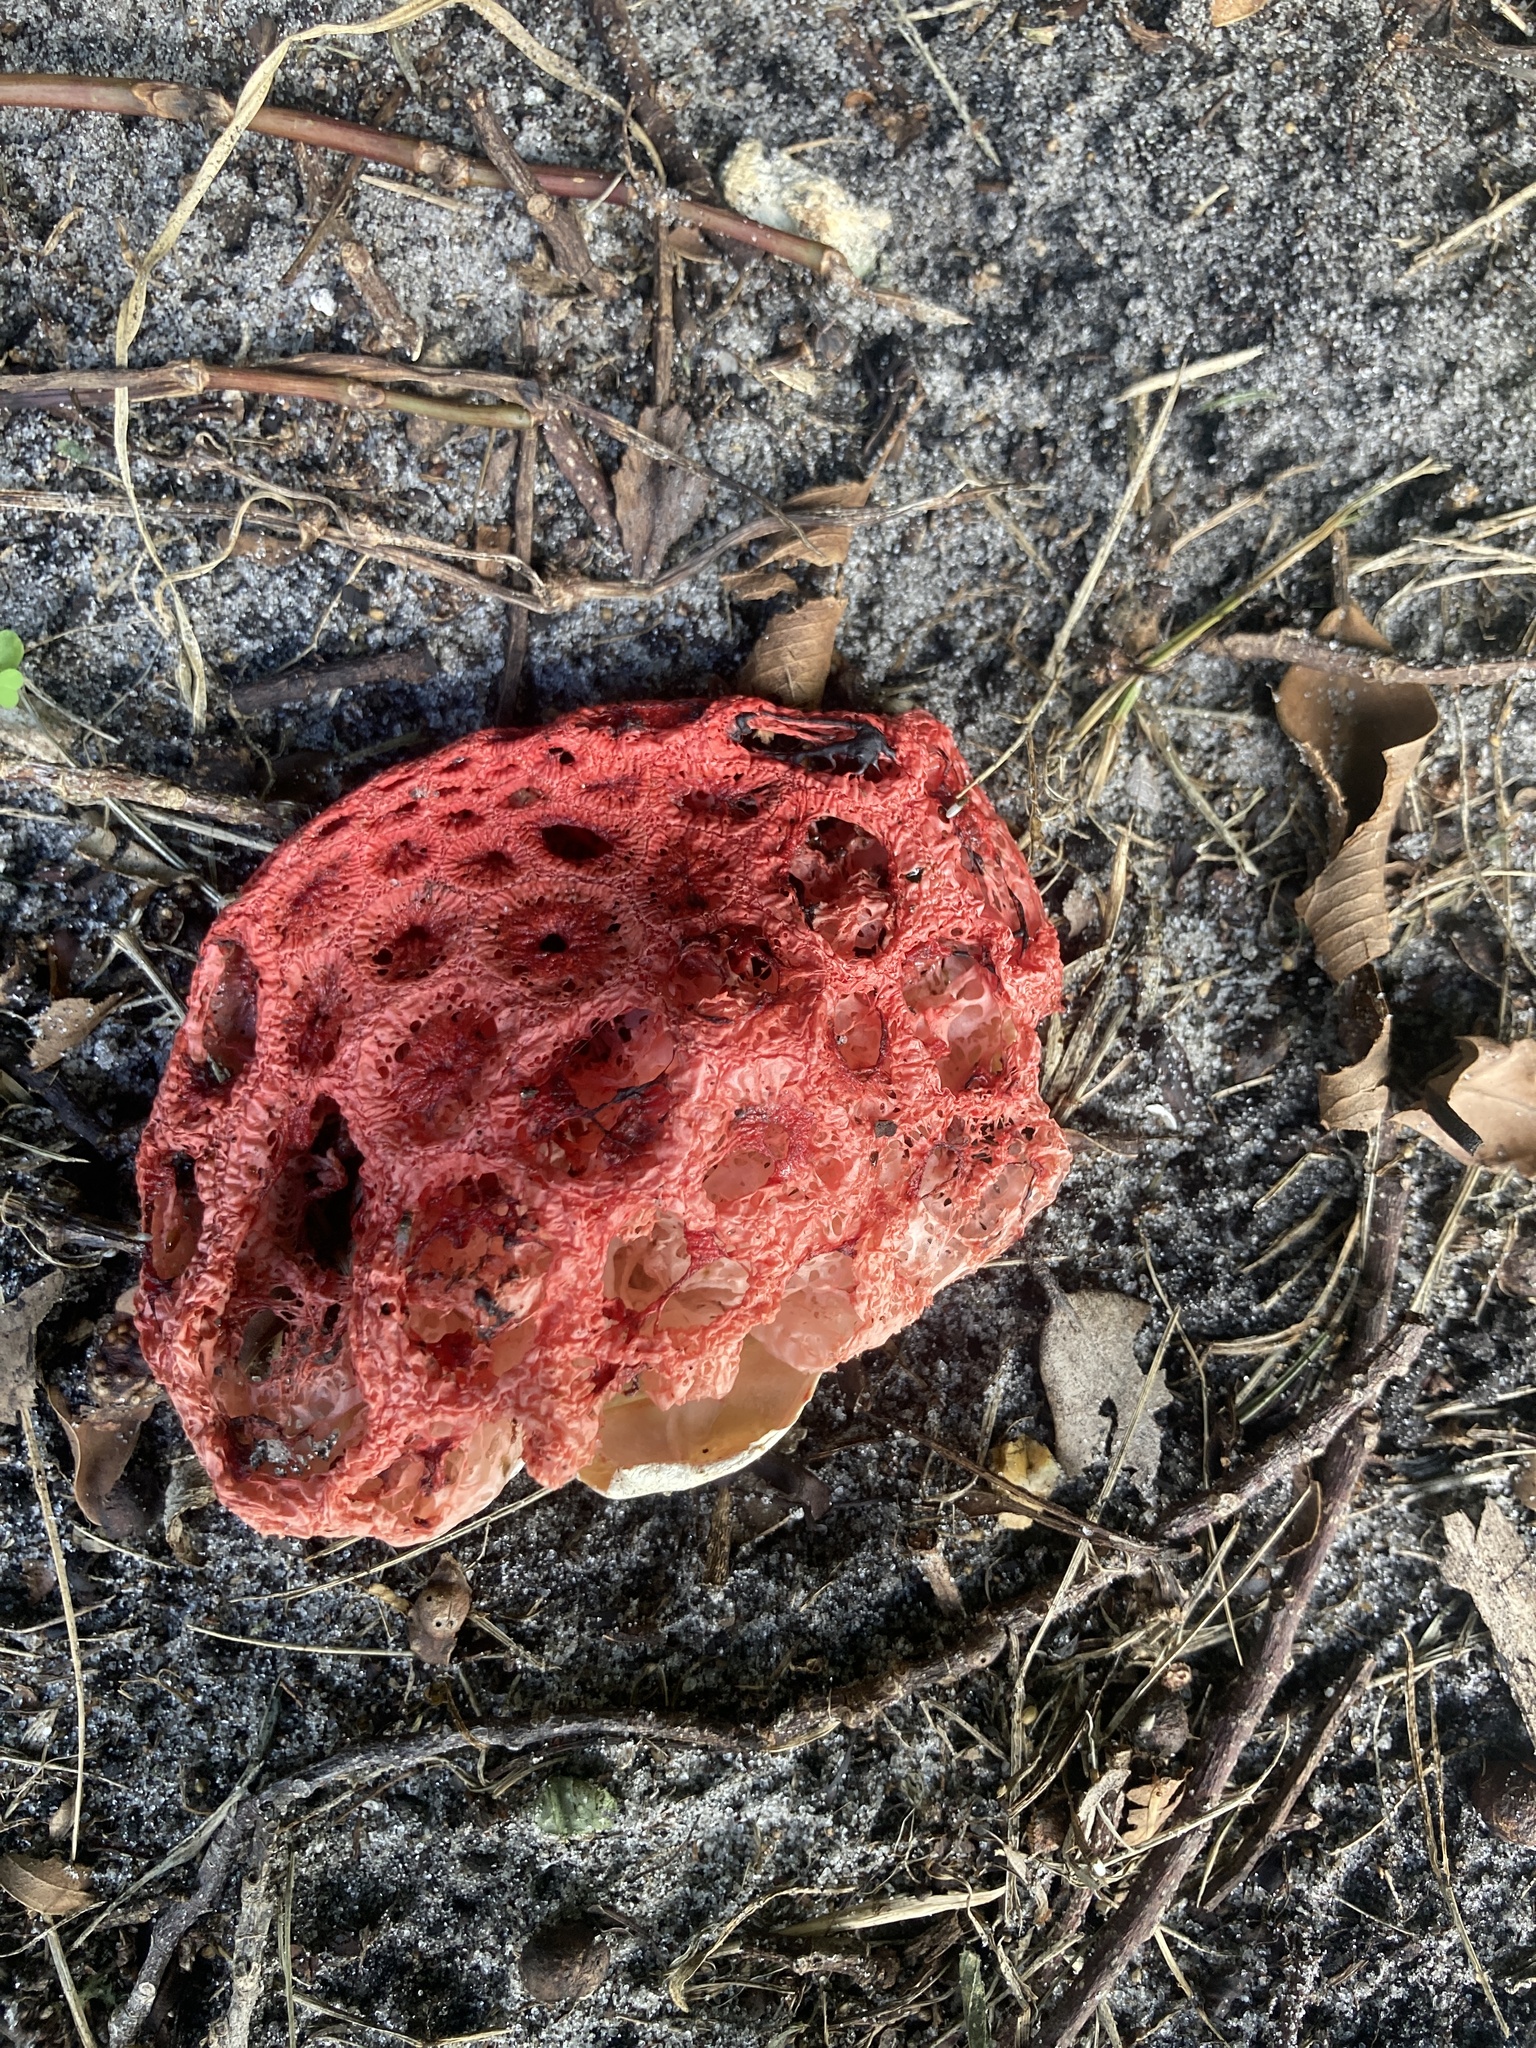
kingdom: Fungi
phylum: Basidiomycota
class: Agaricomycetes
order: Phallales
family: Phallaceae
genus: Clathrus
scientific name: Clathrus crispatus
